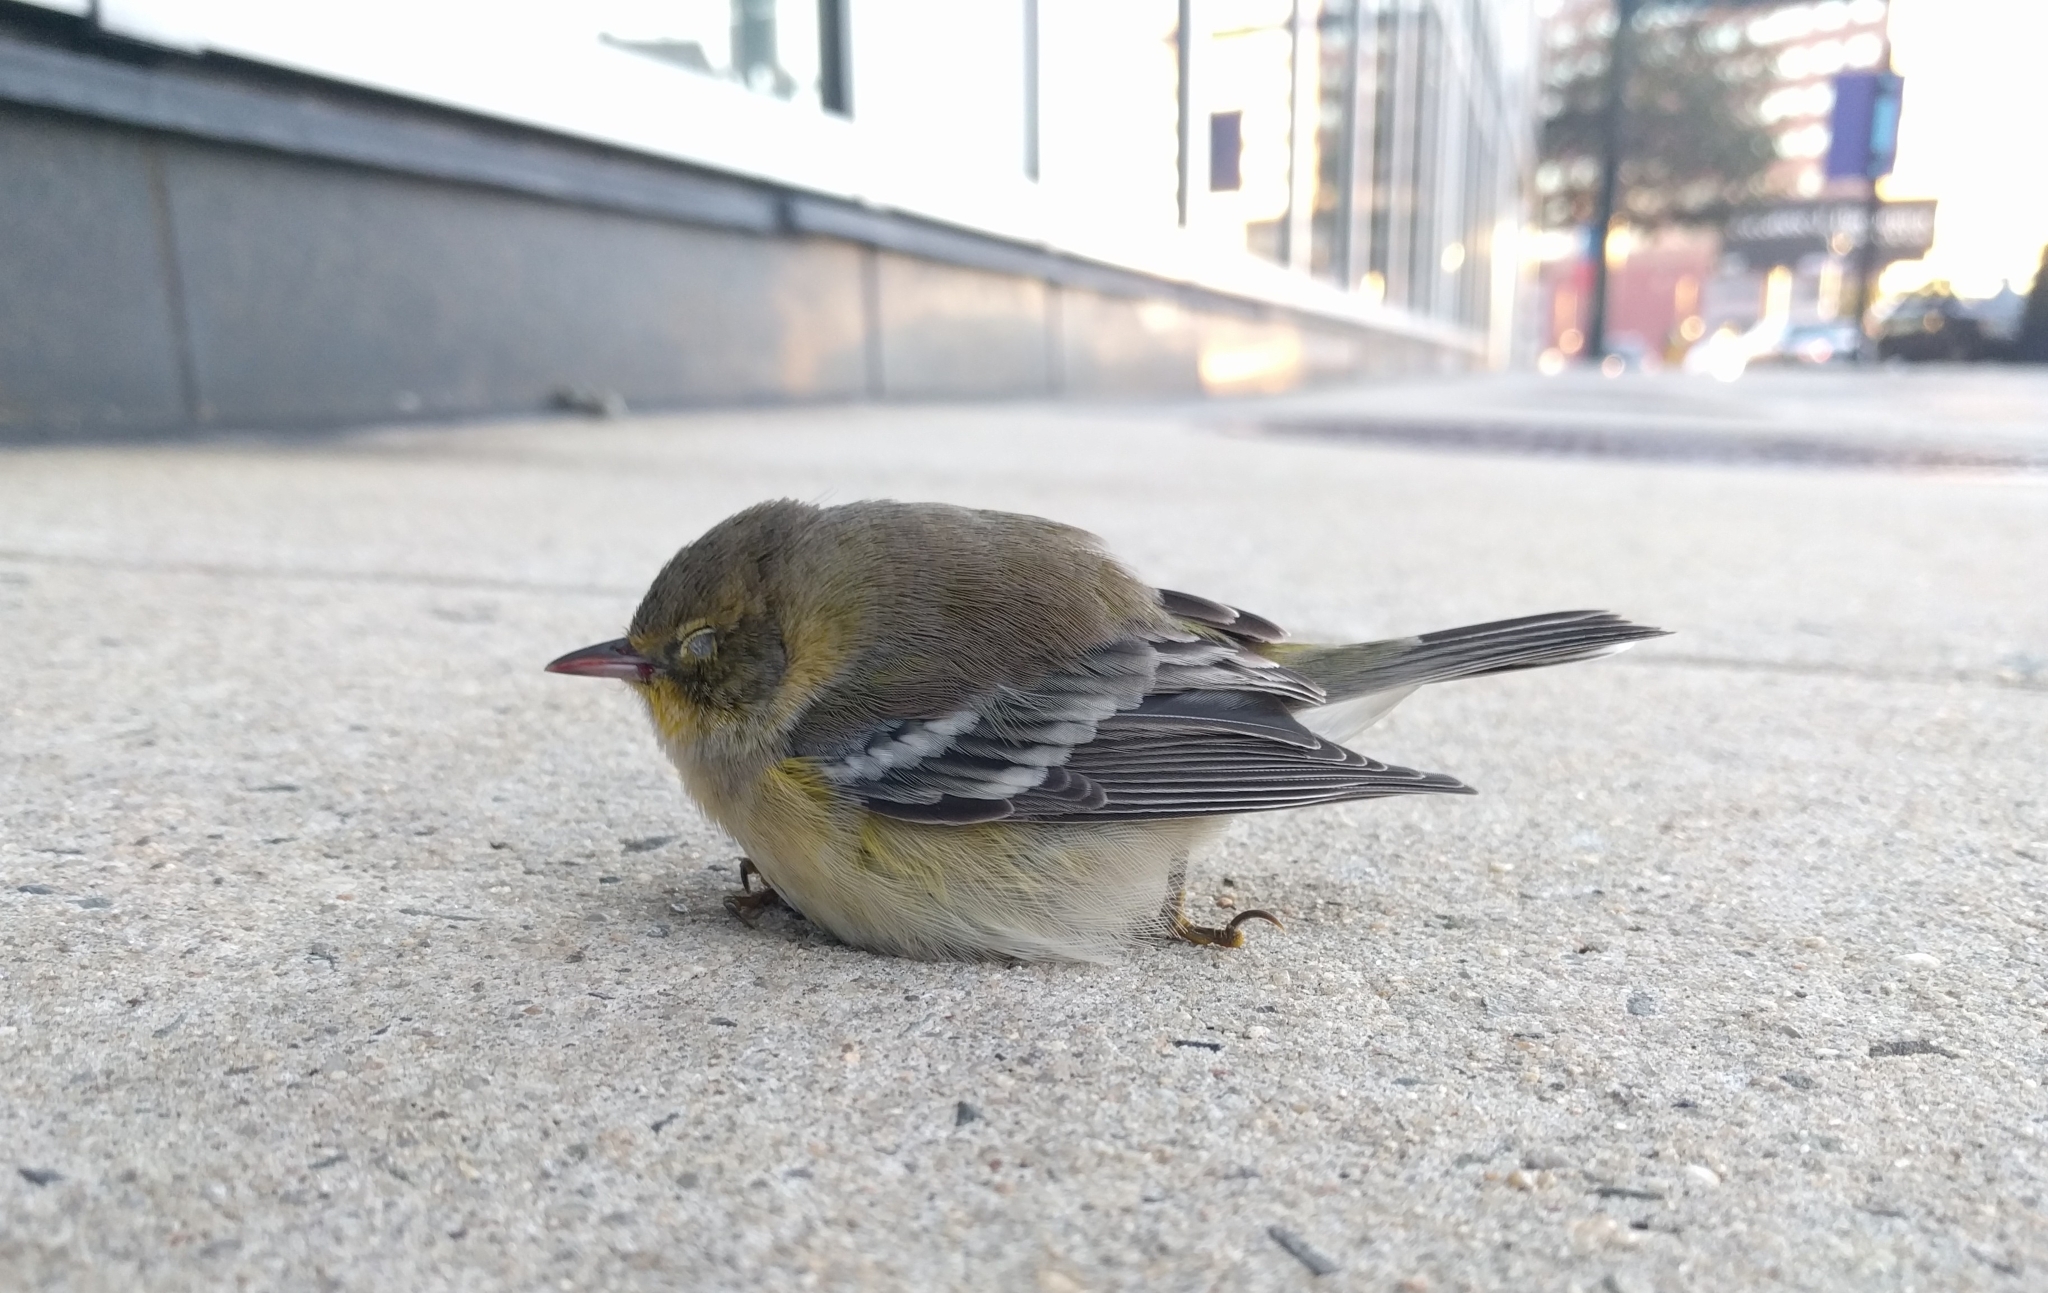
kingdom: Animalia
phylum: Chordata
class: Aves
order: Passeriformes
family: Parulidae
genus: Setophaga
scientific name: Setophaga pinus
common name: Pine warbler
